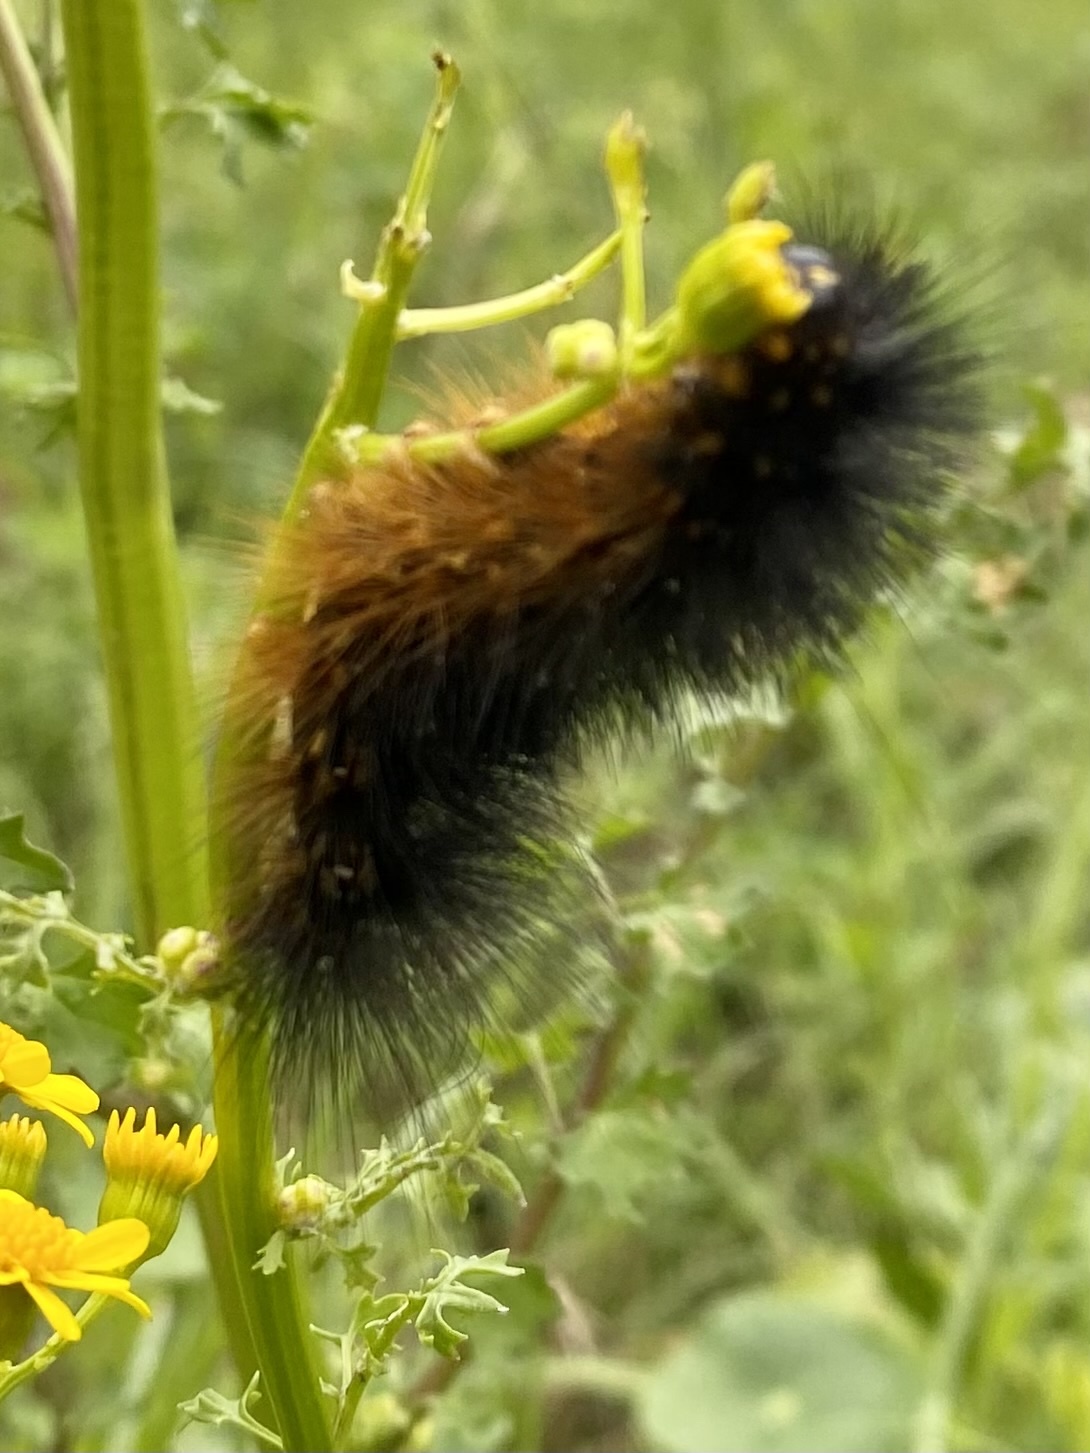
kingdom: Animalia
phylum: Arthropoda
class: Insecta
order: Lepidoptera
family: Erebidae
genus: Estigmene
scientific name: Estigmene acrea
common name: Salt marsh moth
